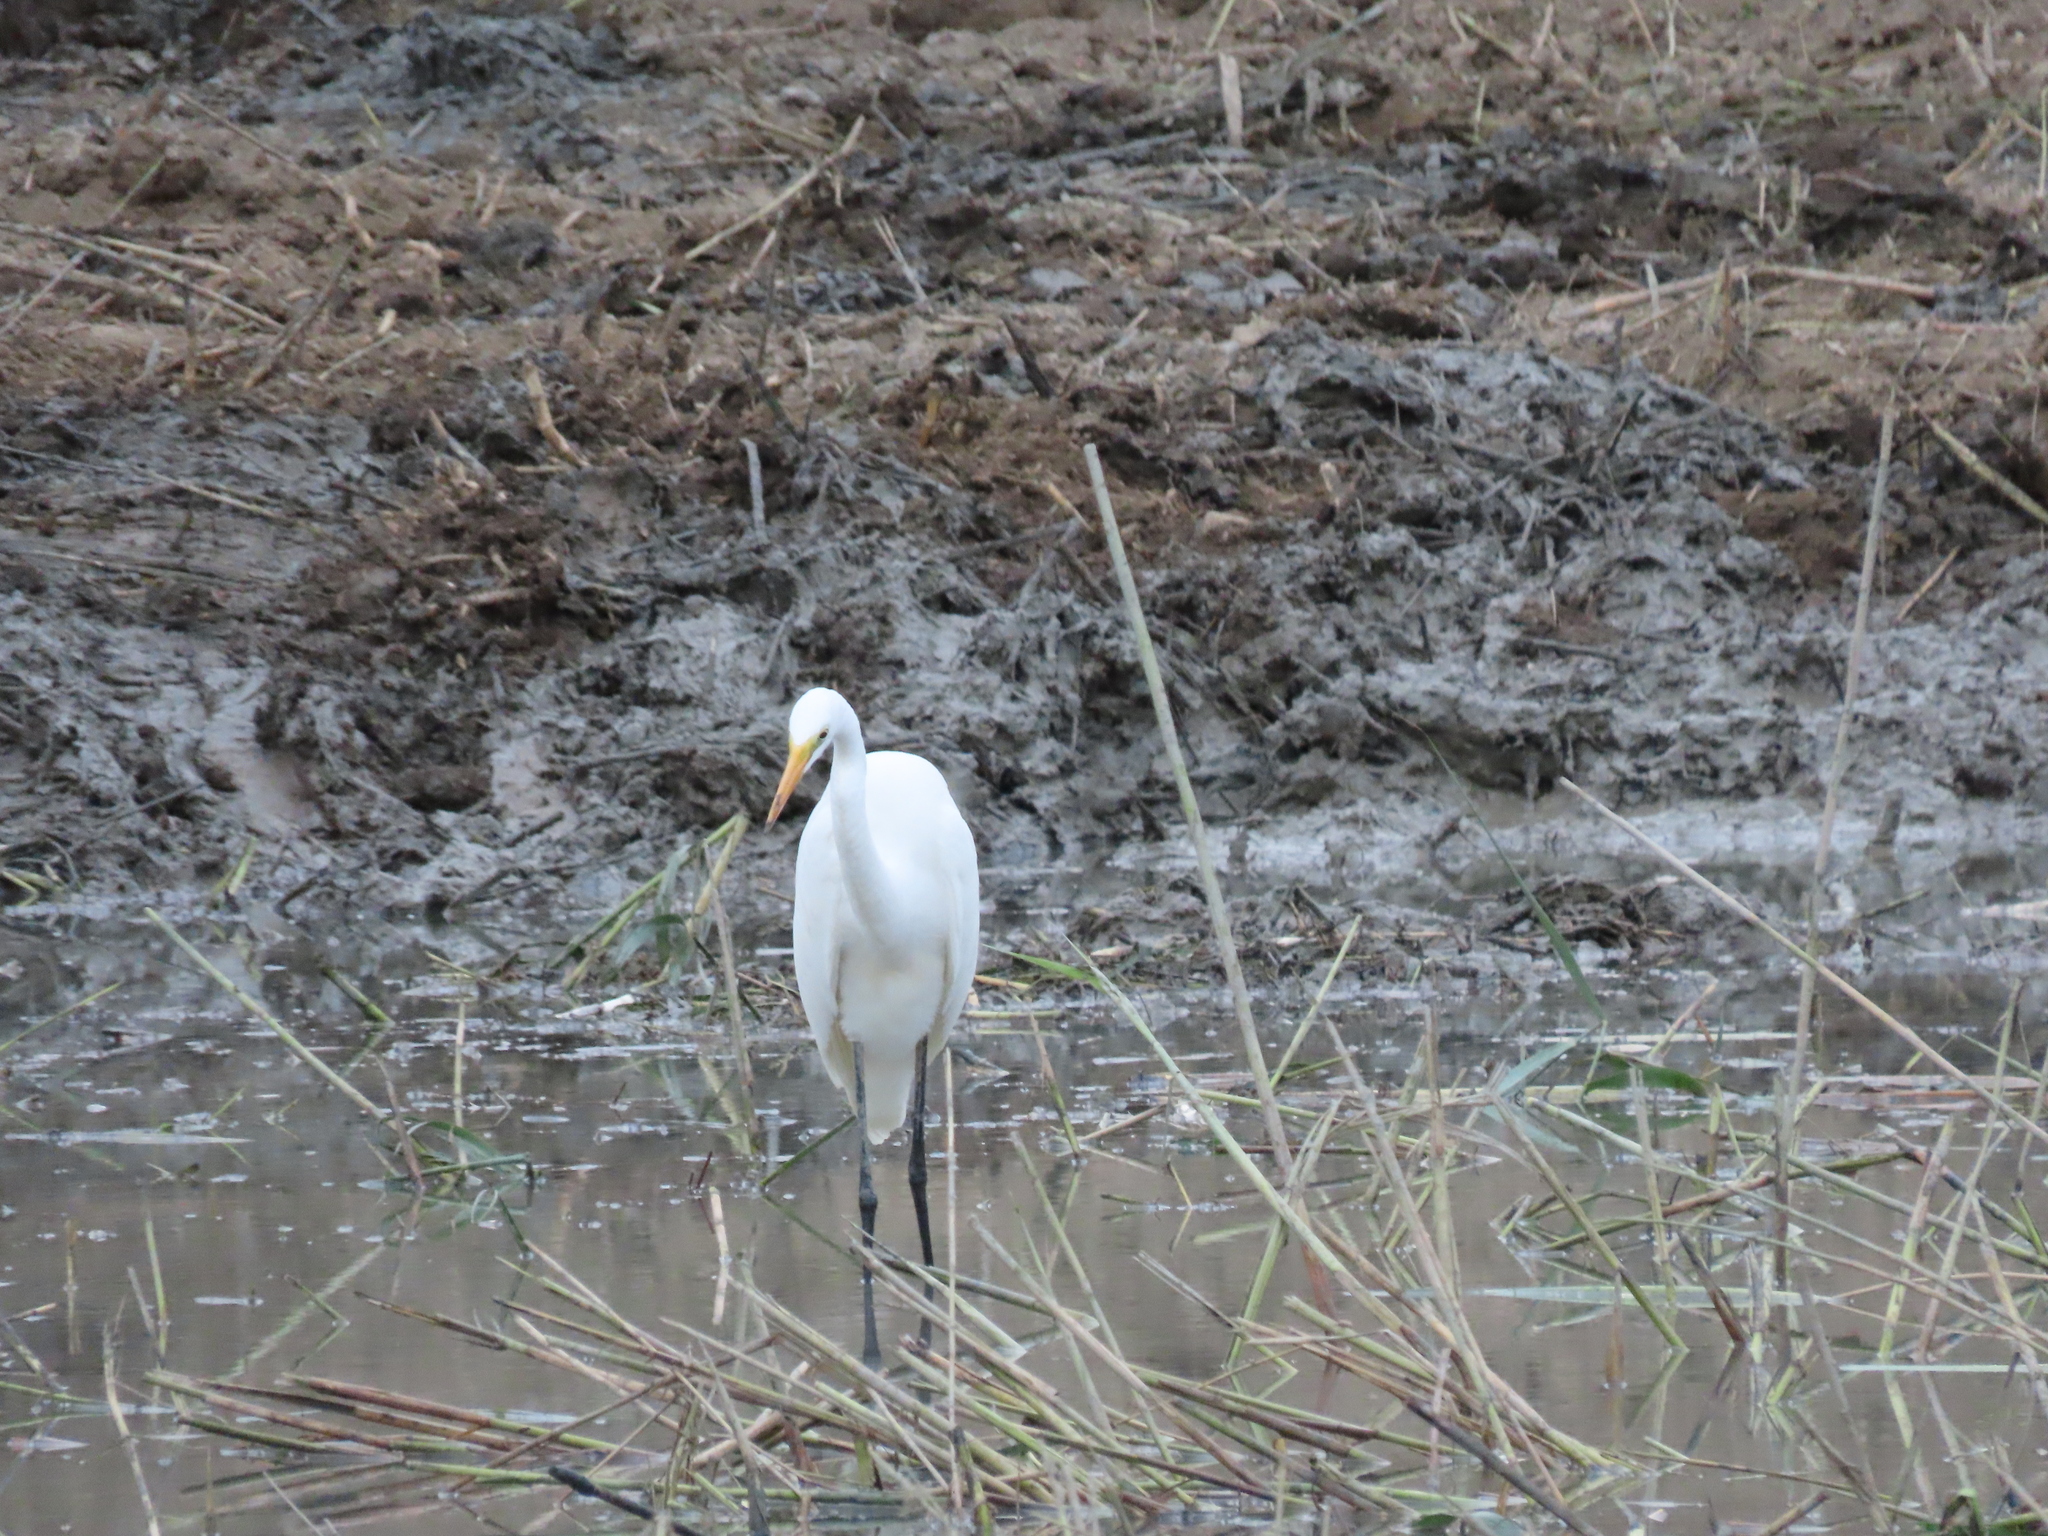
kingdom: Animalia
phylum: Chordata
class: Aves
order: Pelecaniformes
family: Ardeidae
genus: Ardea
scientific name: Ardea alba
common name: Great egret
